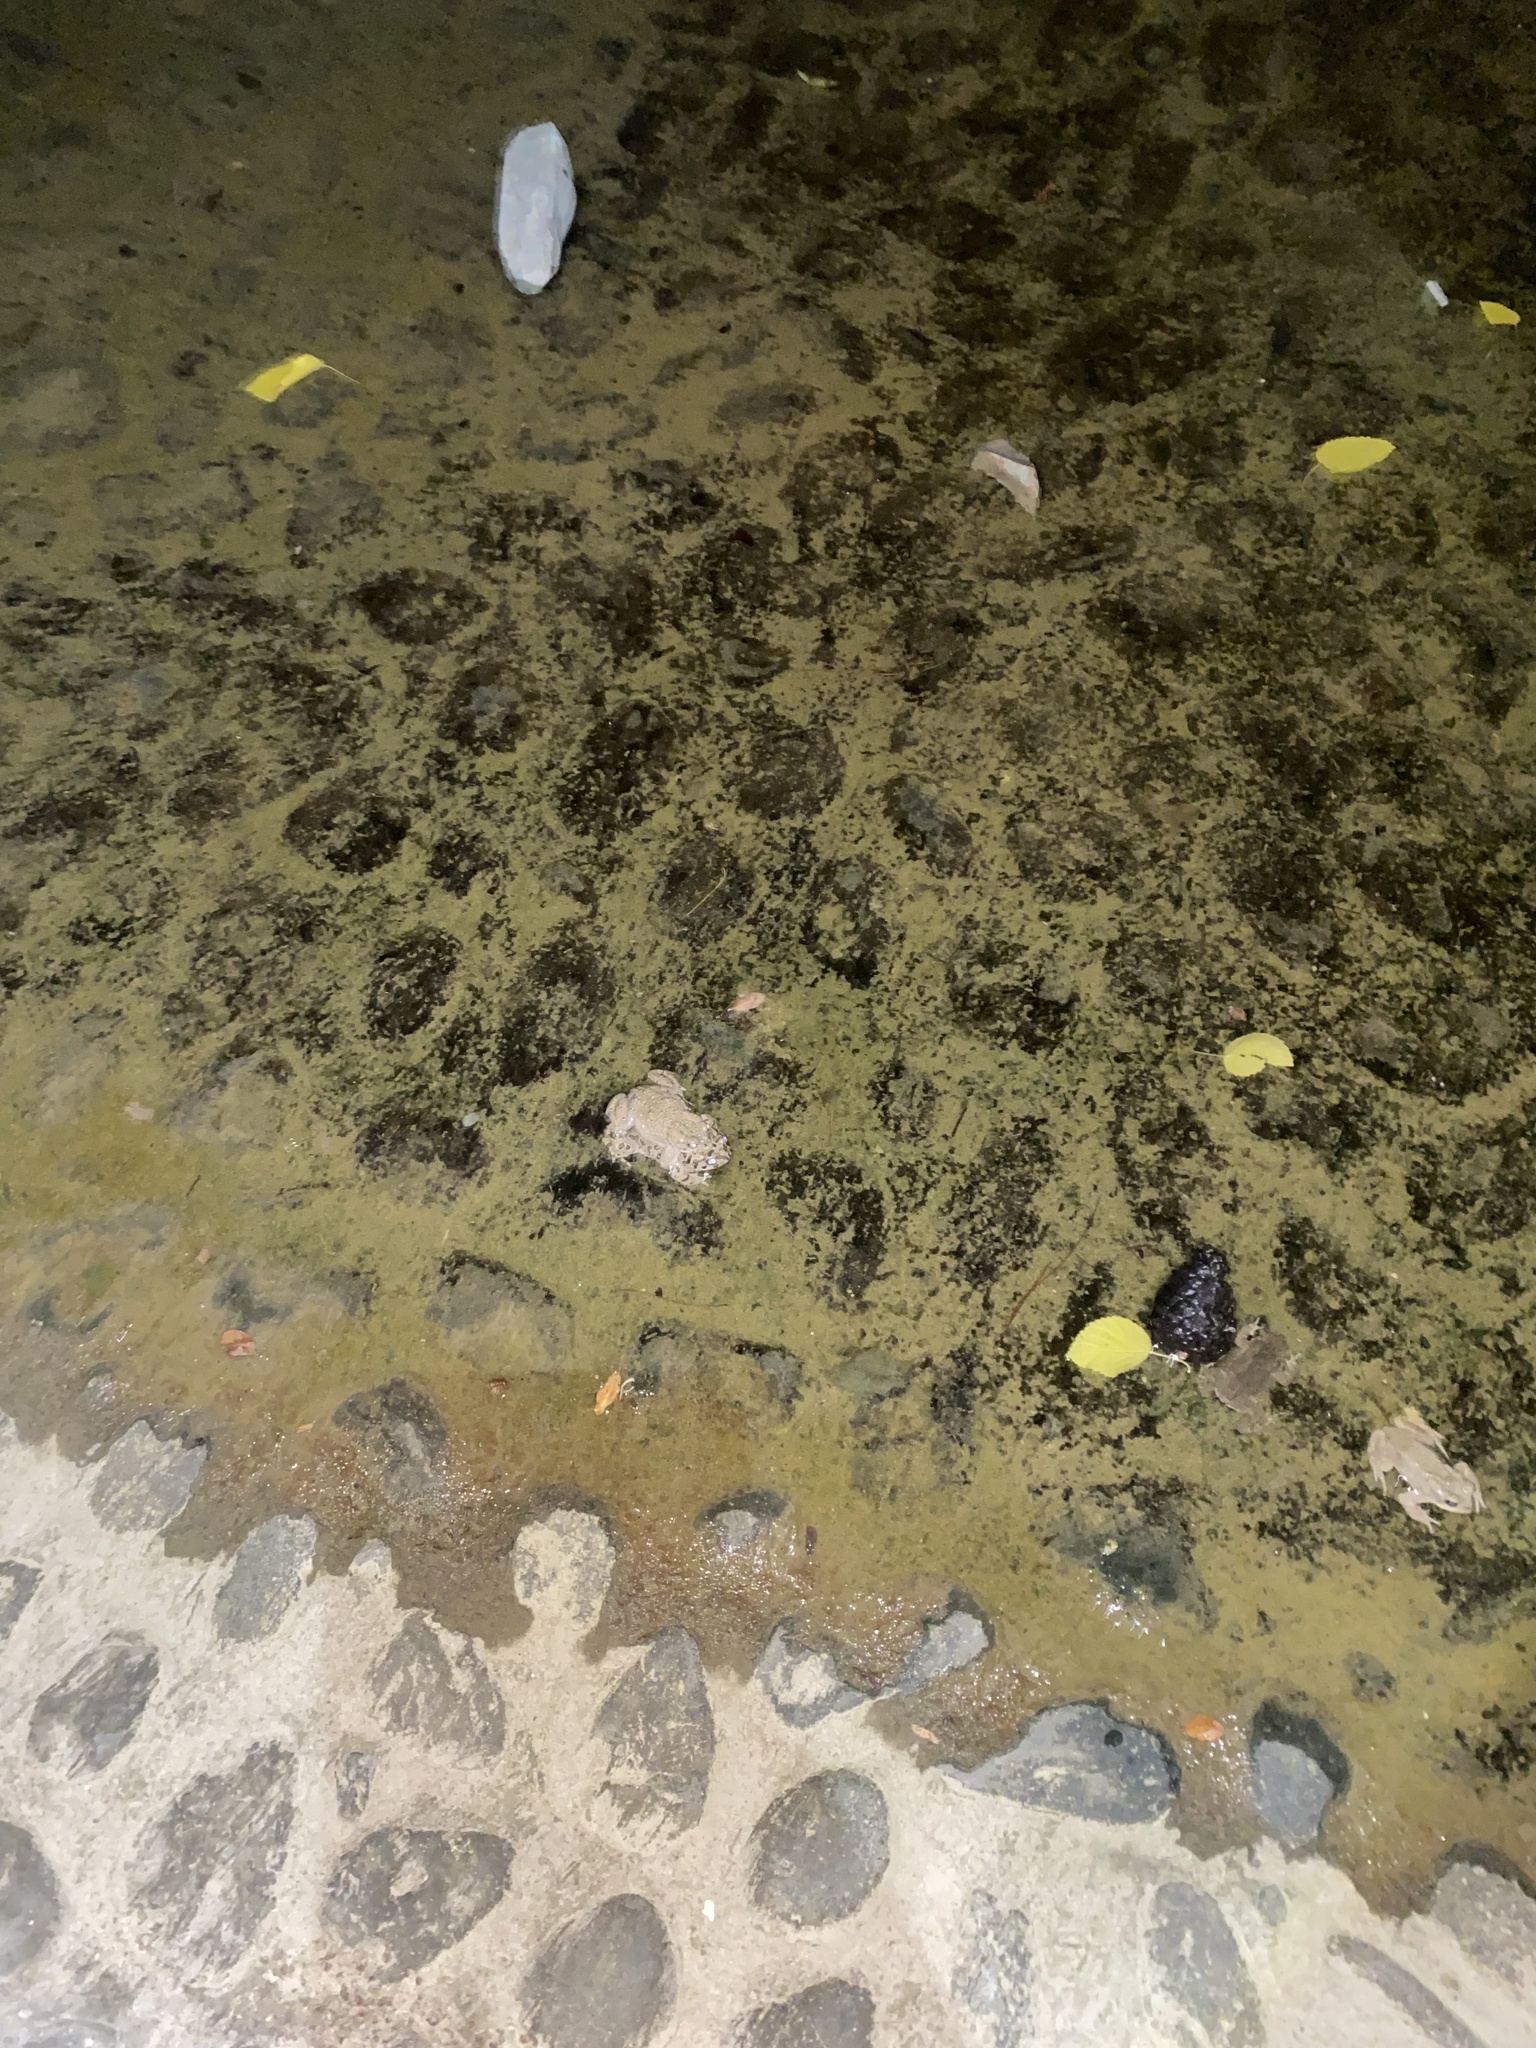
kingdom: Animalia
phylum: Chordata
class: Amphibia
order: Anura
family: Bufonidae
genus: Bufotes
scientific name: Bufotes viridis
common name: European green toad
